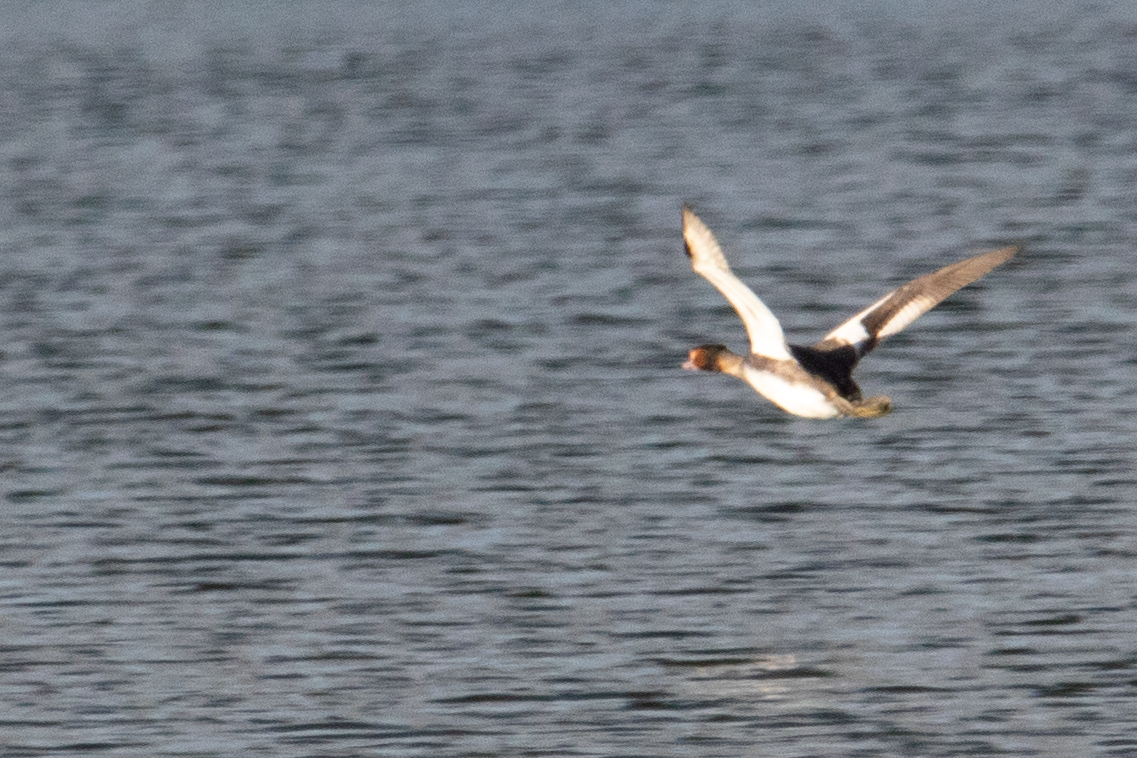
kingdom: Animalia
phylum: Chordata
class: Aves
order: Podicipediformes
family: Podicipedidae
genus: Podiceps
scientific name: Podiceps cristatus
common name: Great crested grebe
